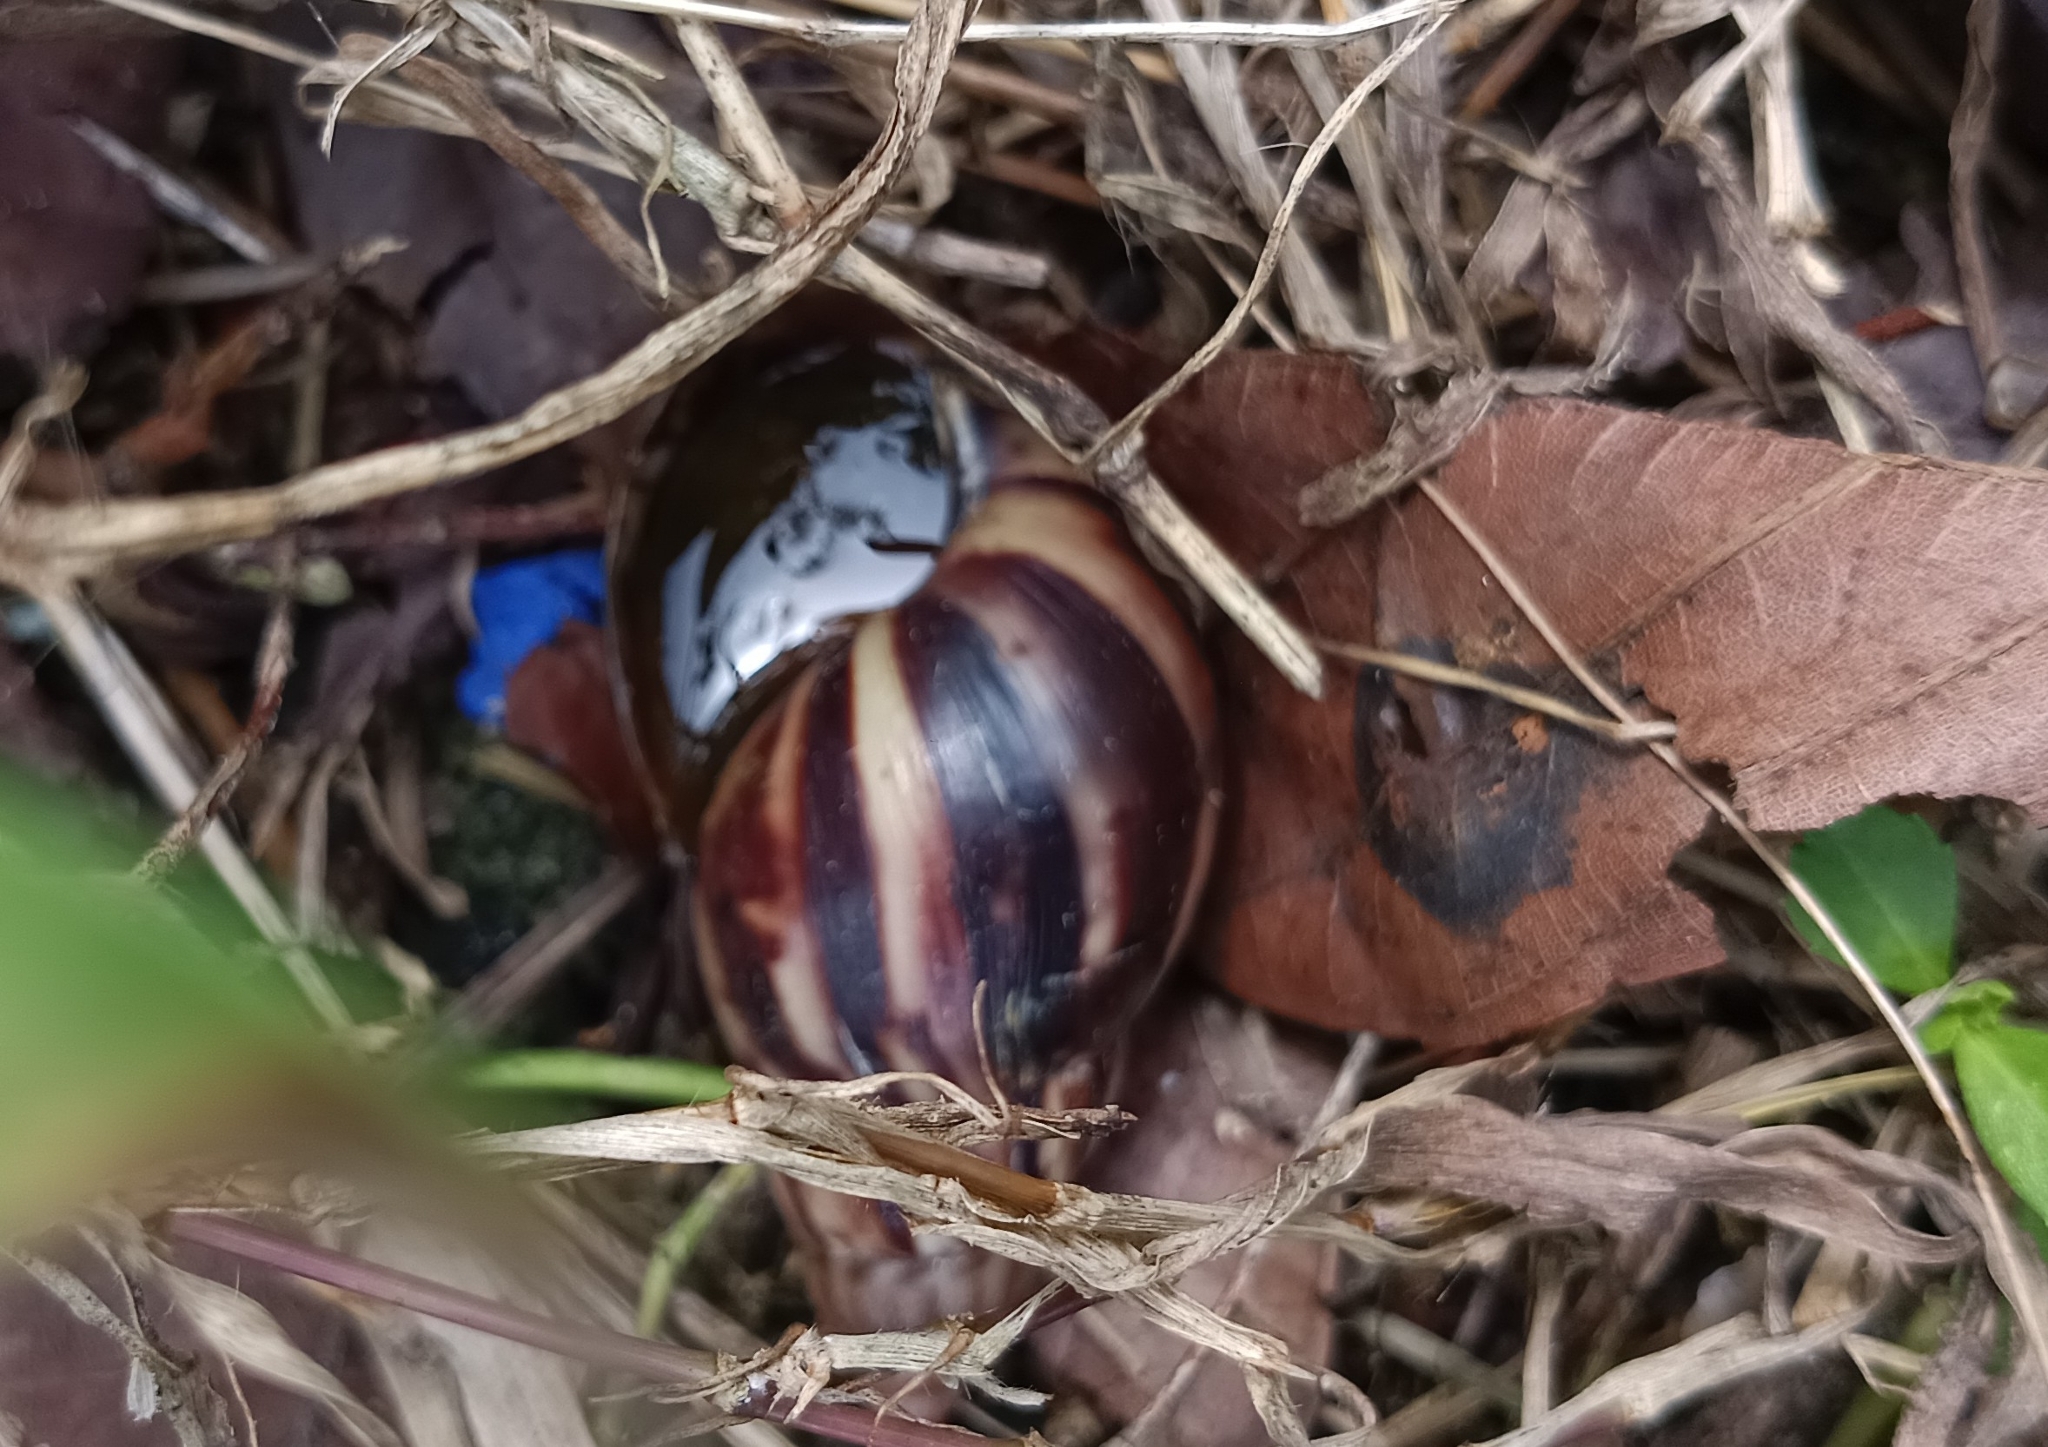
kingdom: Animalia
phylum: Mollusca
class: Gastropoda
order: Stylommatophora
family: Achatinidae
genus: Lissachatina
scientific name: Lissachatina fulica
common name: Giant african snail
